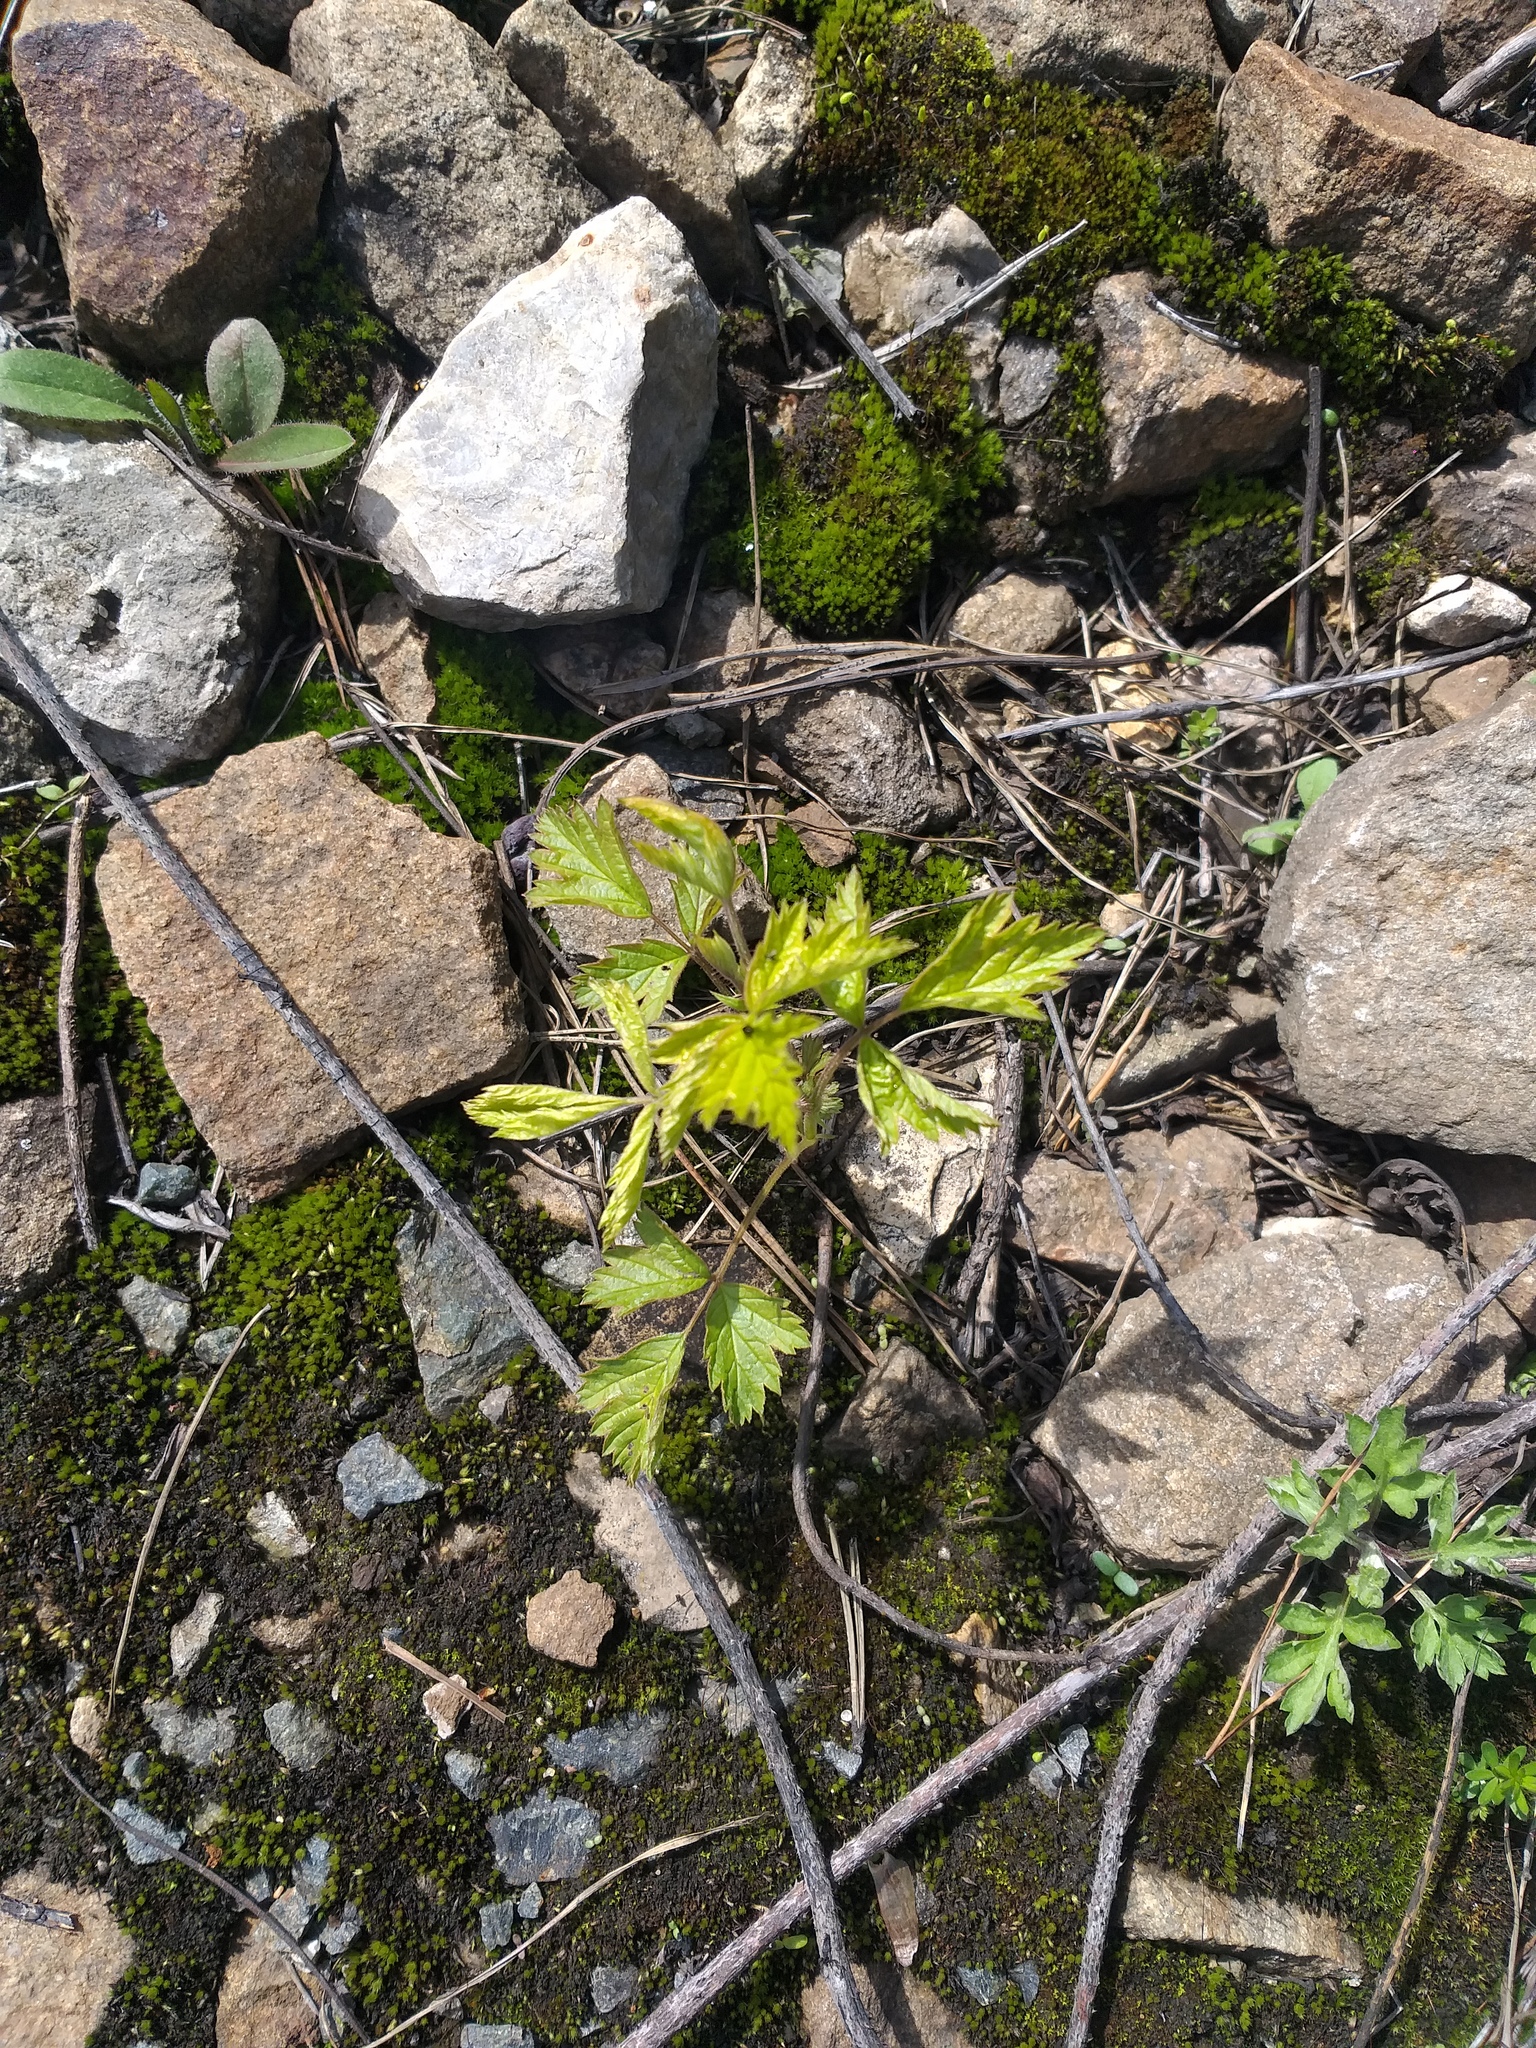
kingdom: Plantae
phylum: Tracheophyta
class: Magnoliopsida
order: Rosales
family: Rosaceae
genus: Rubus
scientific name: Rubus caesius
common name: Dewberry
